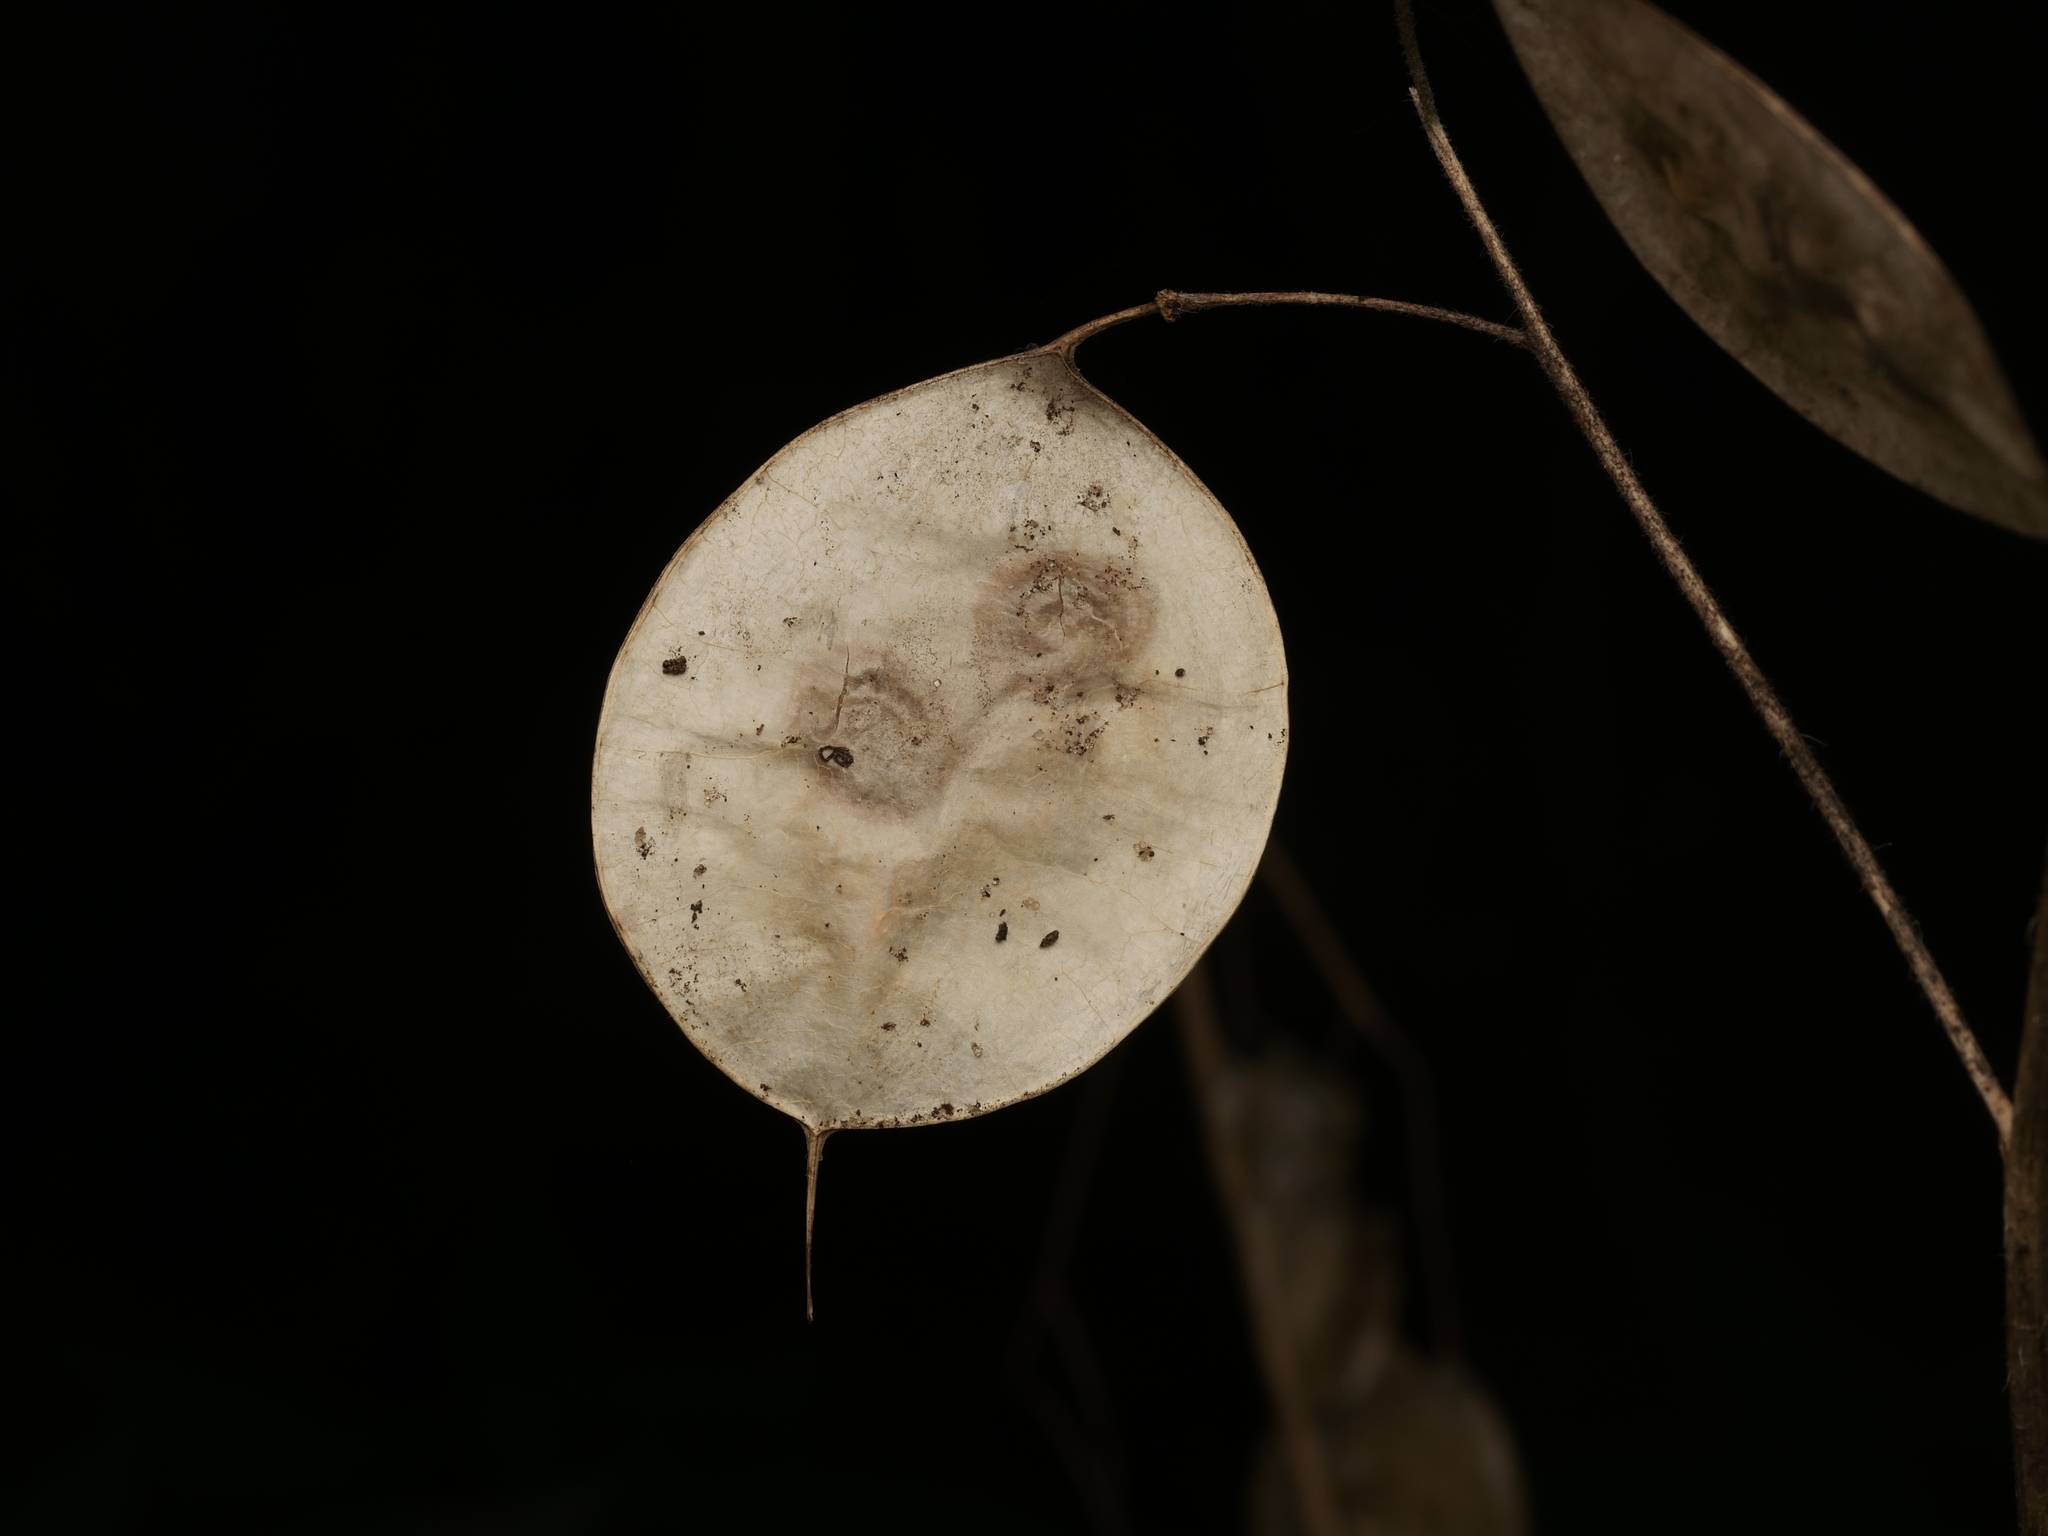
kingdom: Plantae
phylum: Tracheophyta
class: Magnoliopsida
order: Brassicales
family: Brassicaceae
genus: Lunaria
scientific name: Lunaria annua
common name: Honesty
